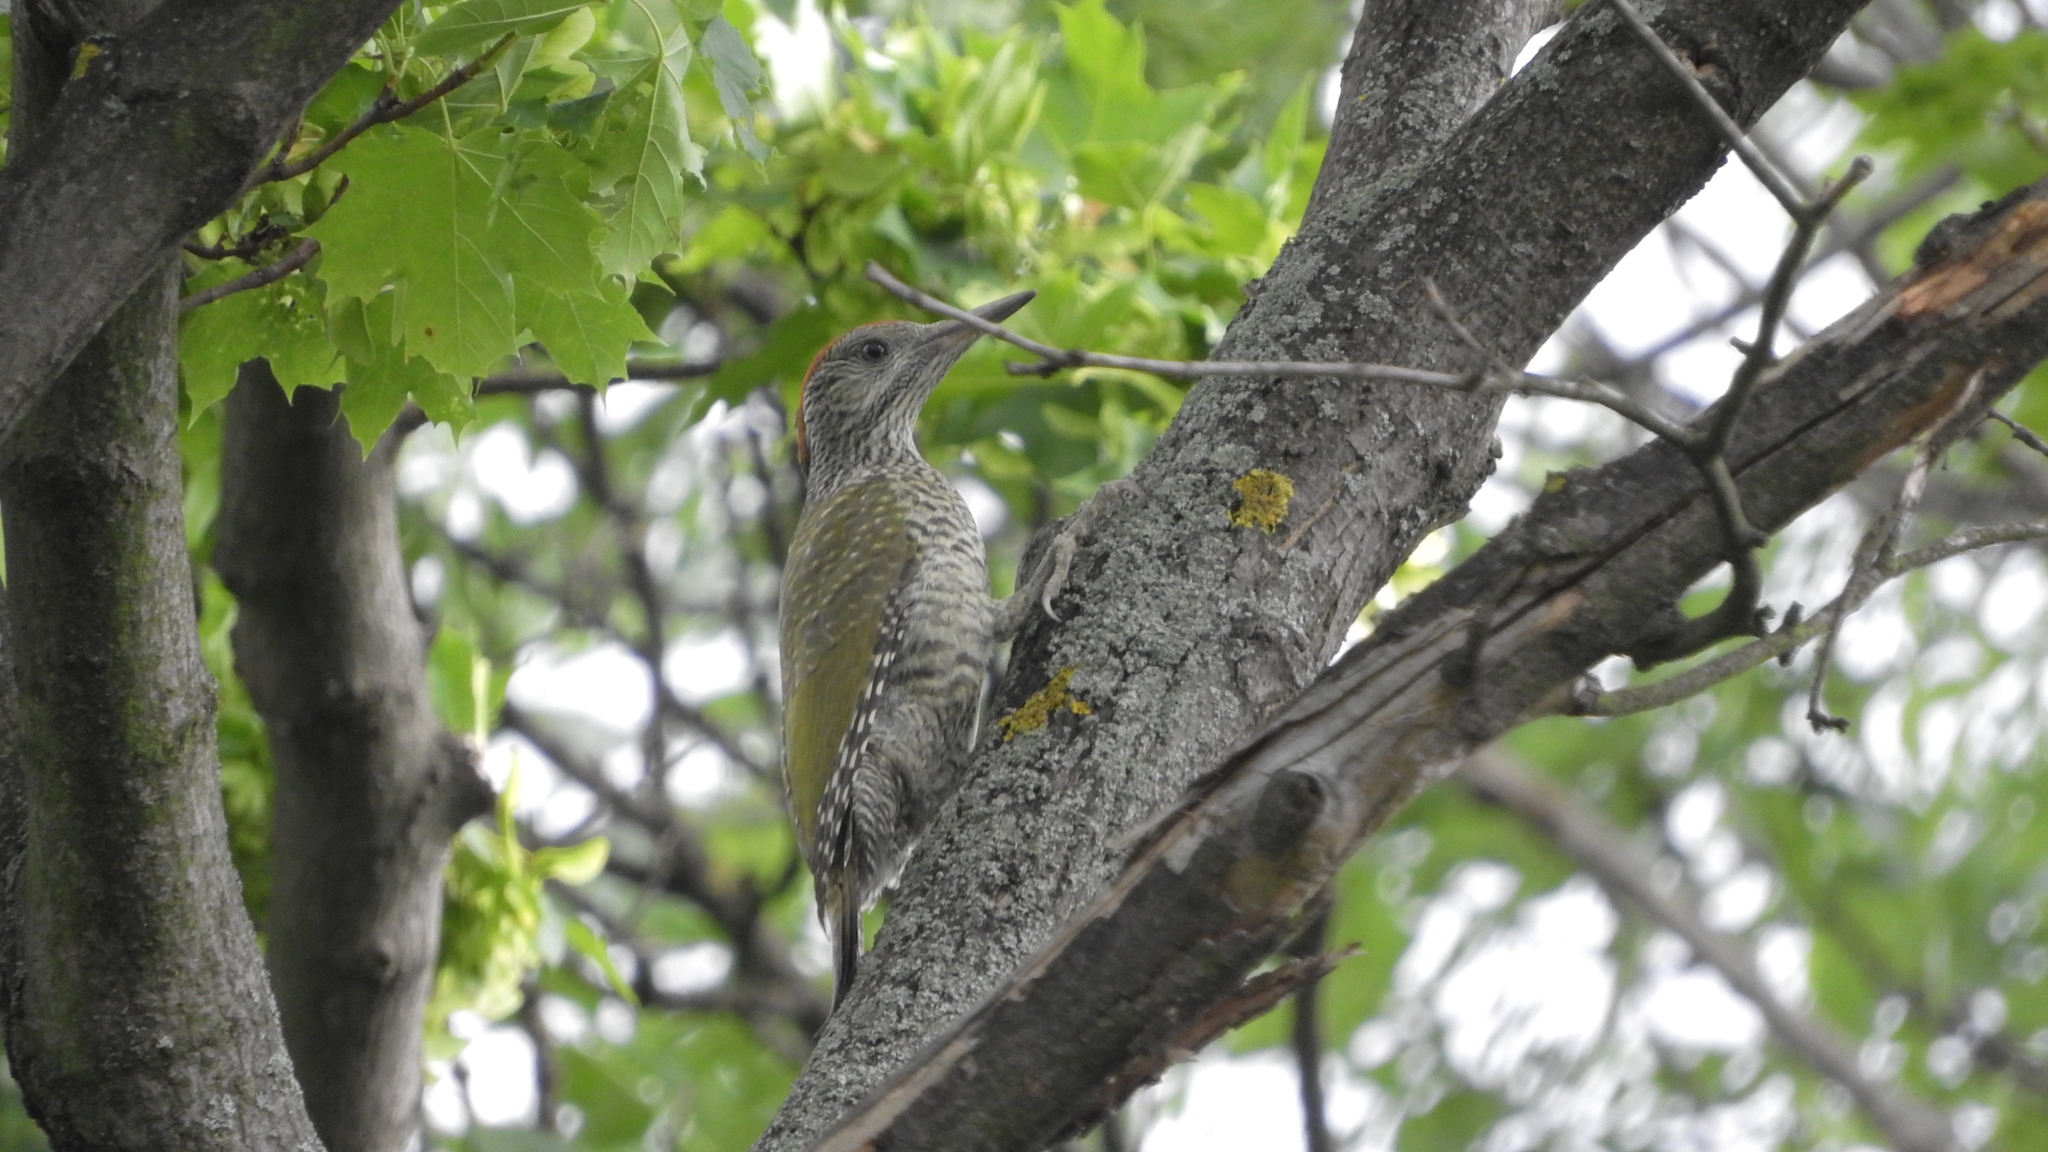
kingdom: Animalia
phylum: Chordata
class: Aves
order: Piciformes
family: Picidae
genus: Picus
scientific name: Picus viridis
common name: European green woodpecker
